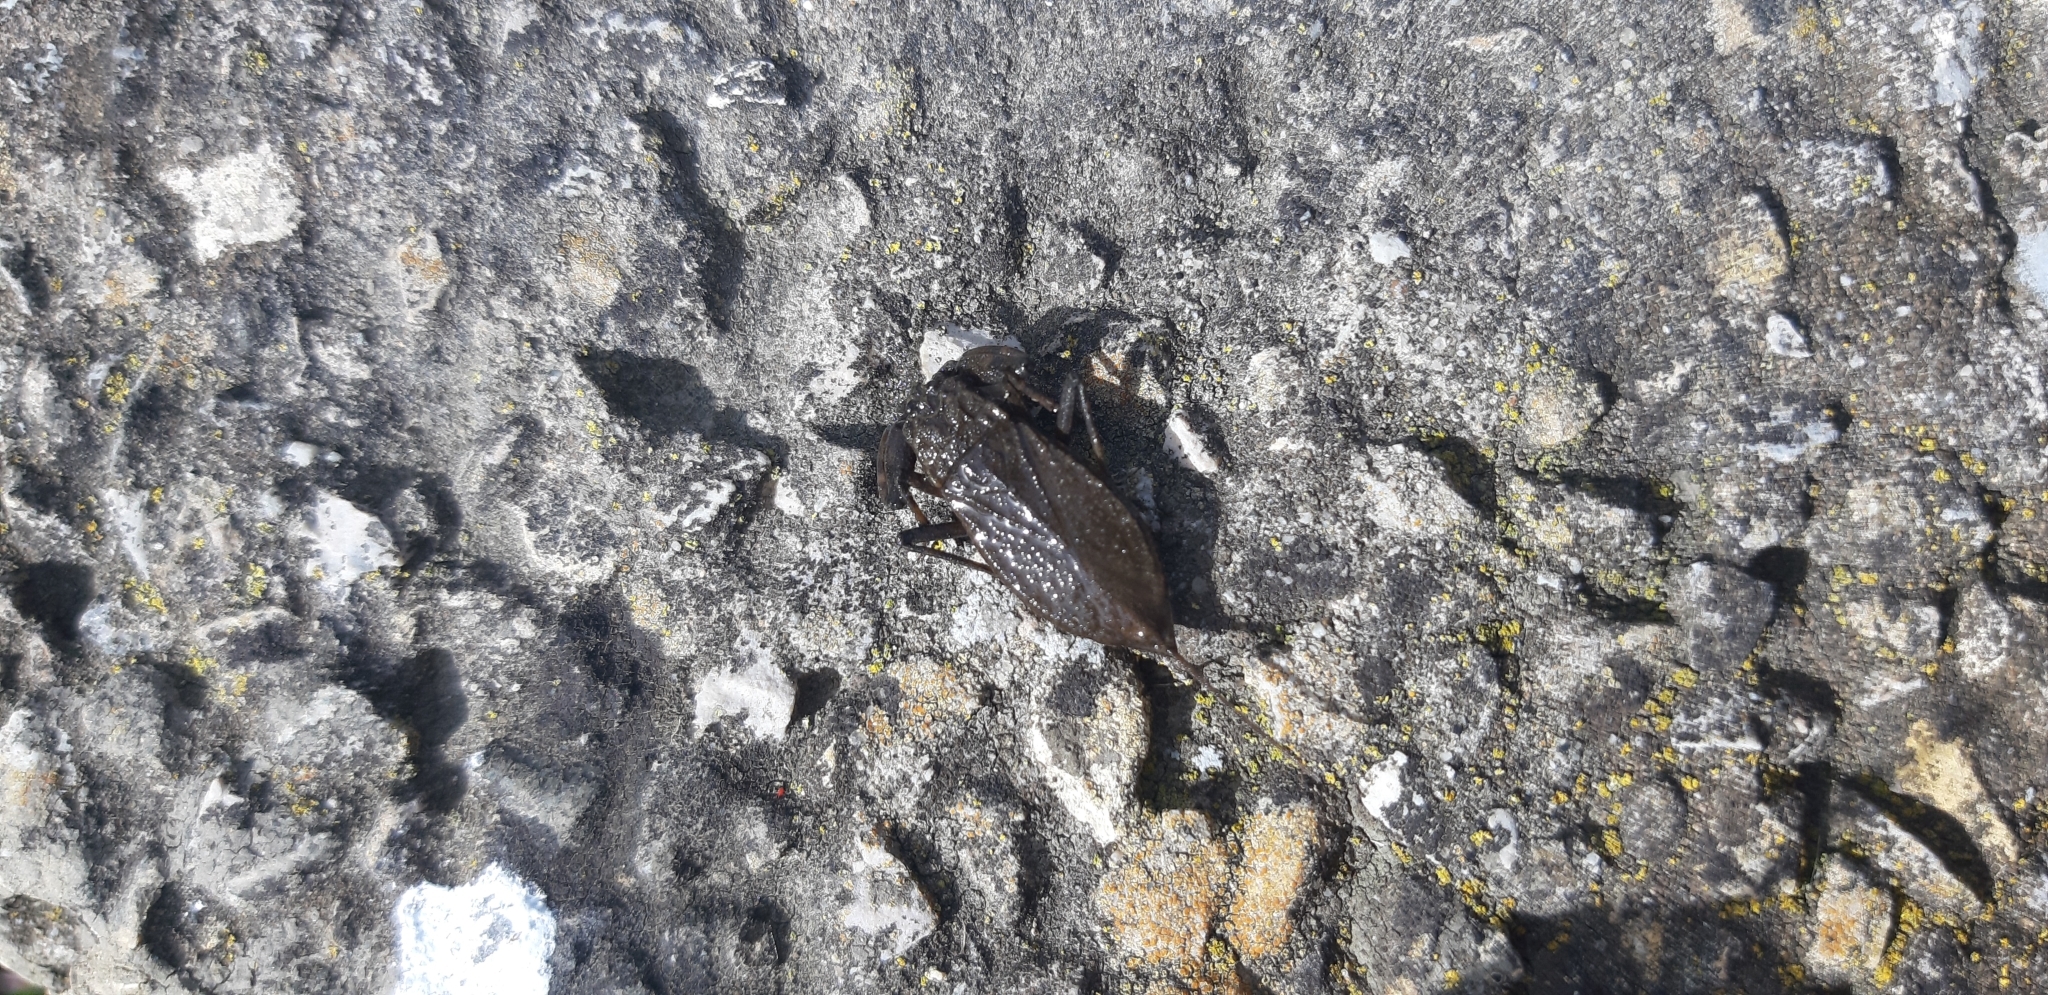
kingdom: Animalia
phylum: Arthropoda
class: Insecta
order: Hemiptera
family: Nepidae
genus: Nepa
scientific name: Nepa cinerea
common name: Water scorpion
